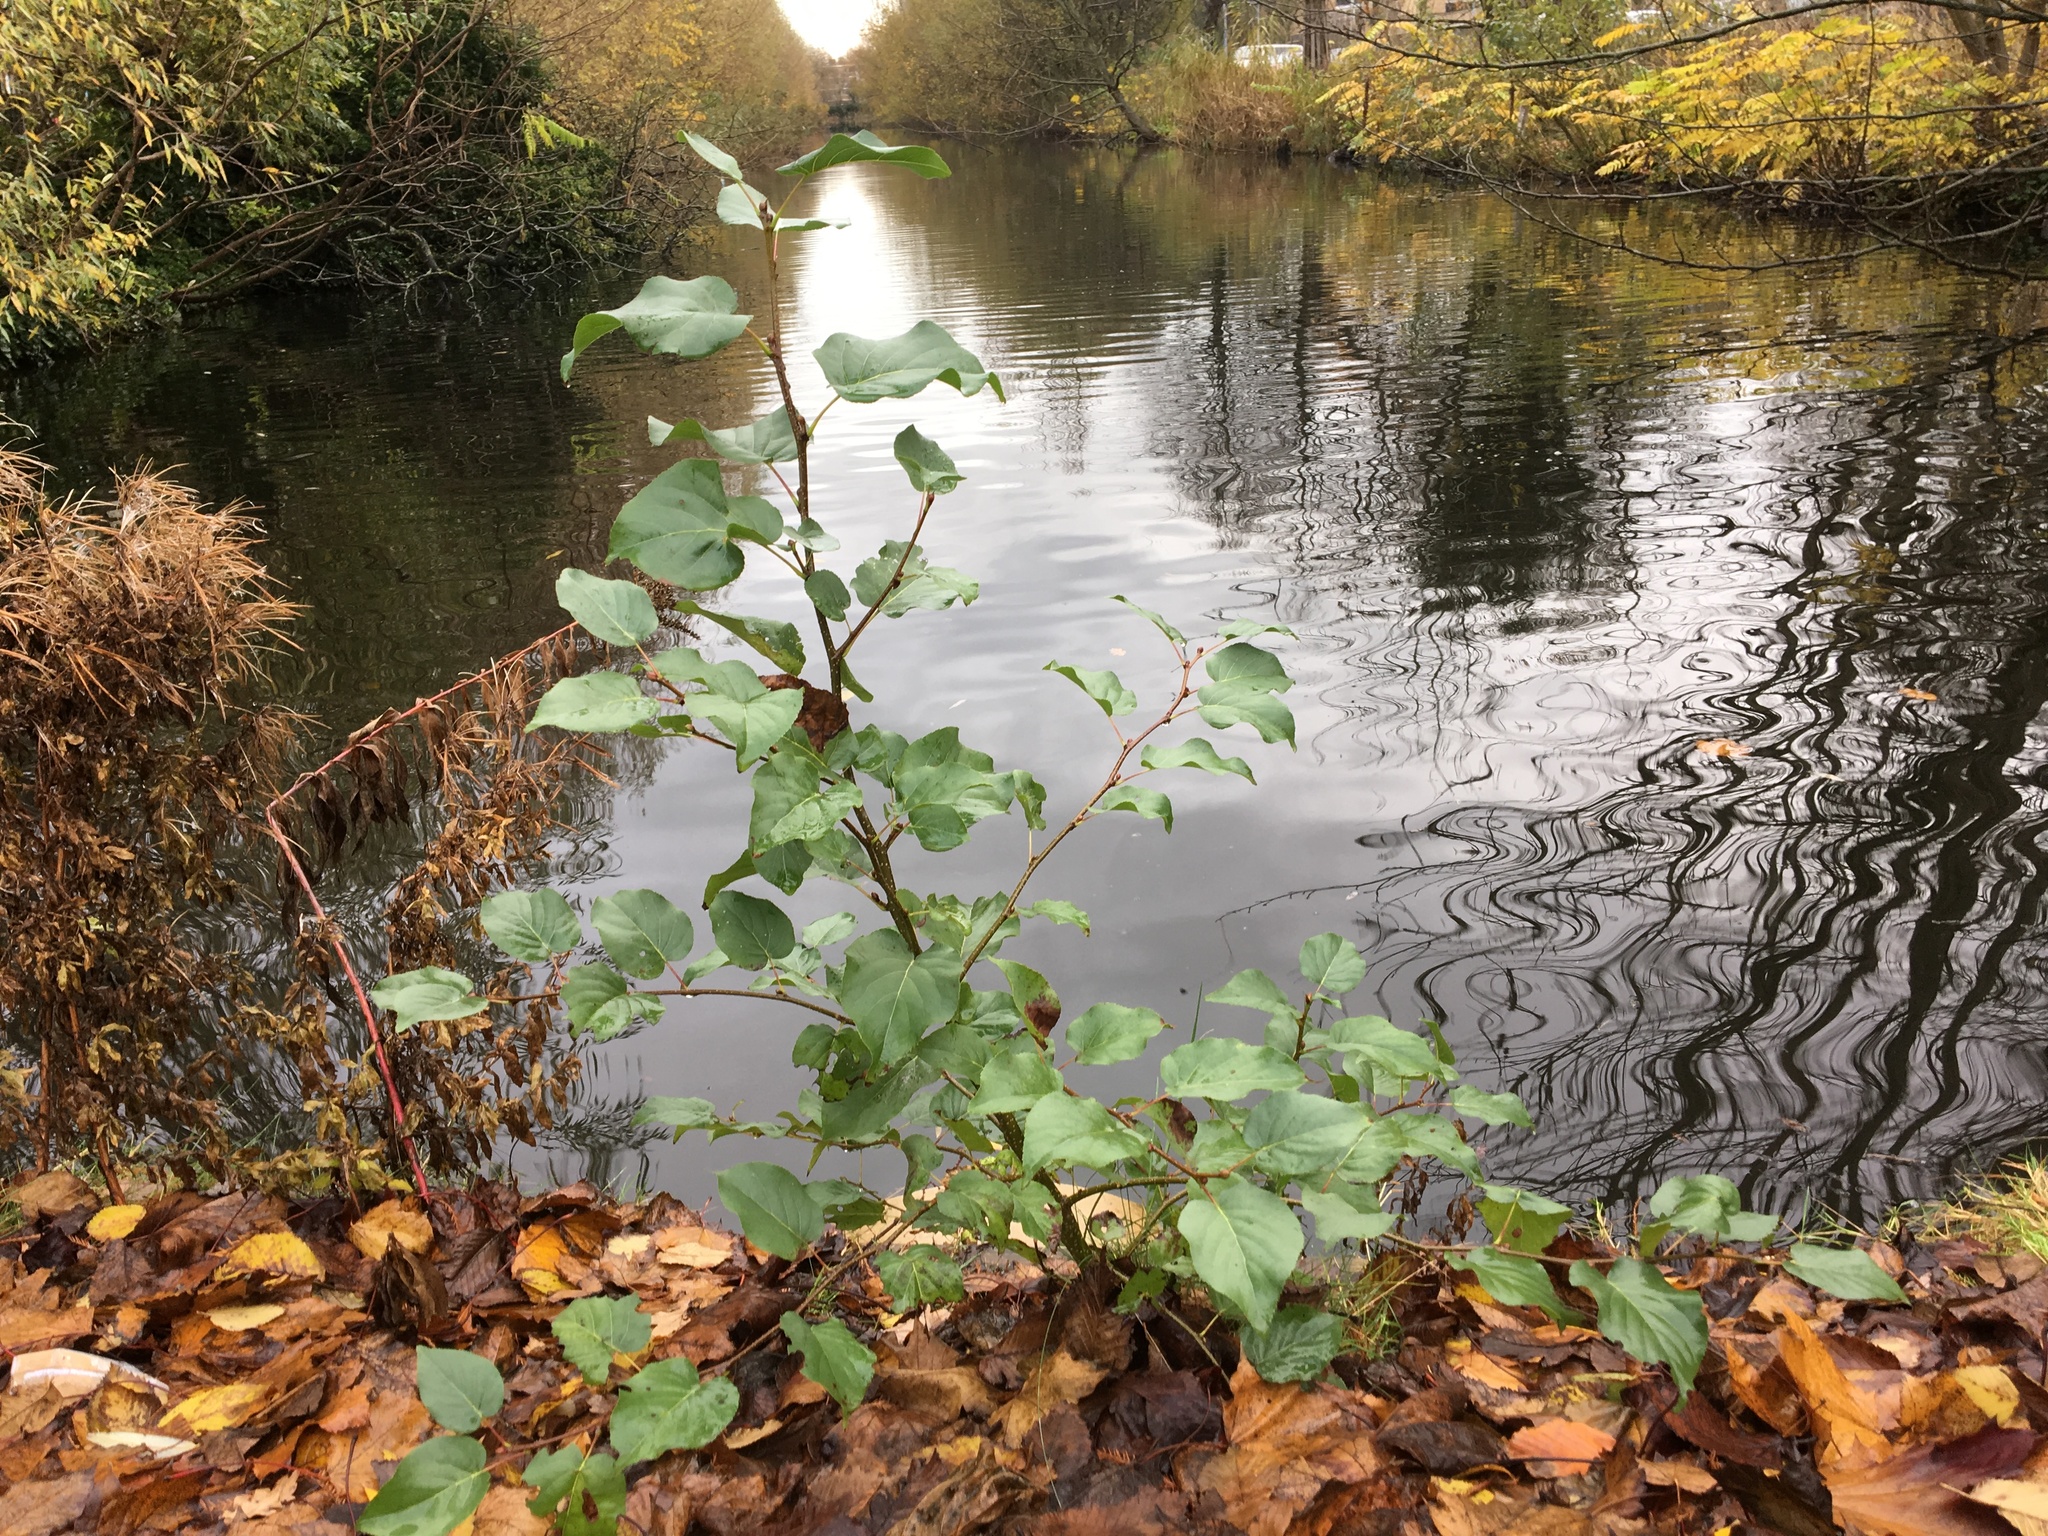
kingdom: Plantae
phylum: Tracheophyta
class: Magnoliopsida
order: Fagales
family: Betulaceae
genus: Alnus
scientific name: Alnus cordata
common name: Italian alder
